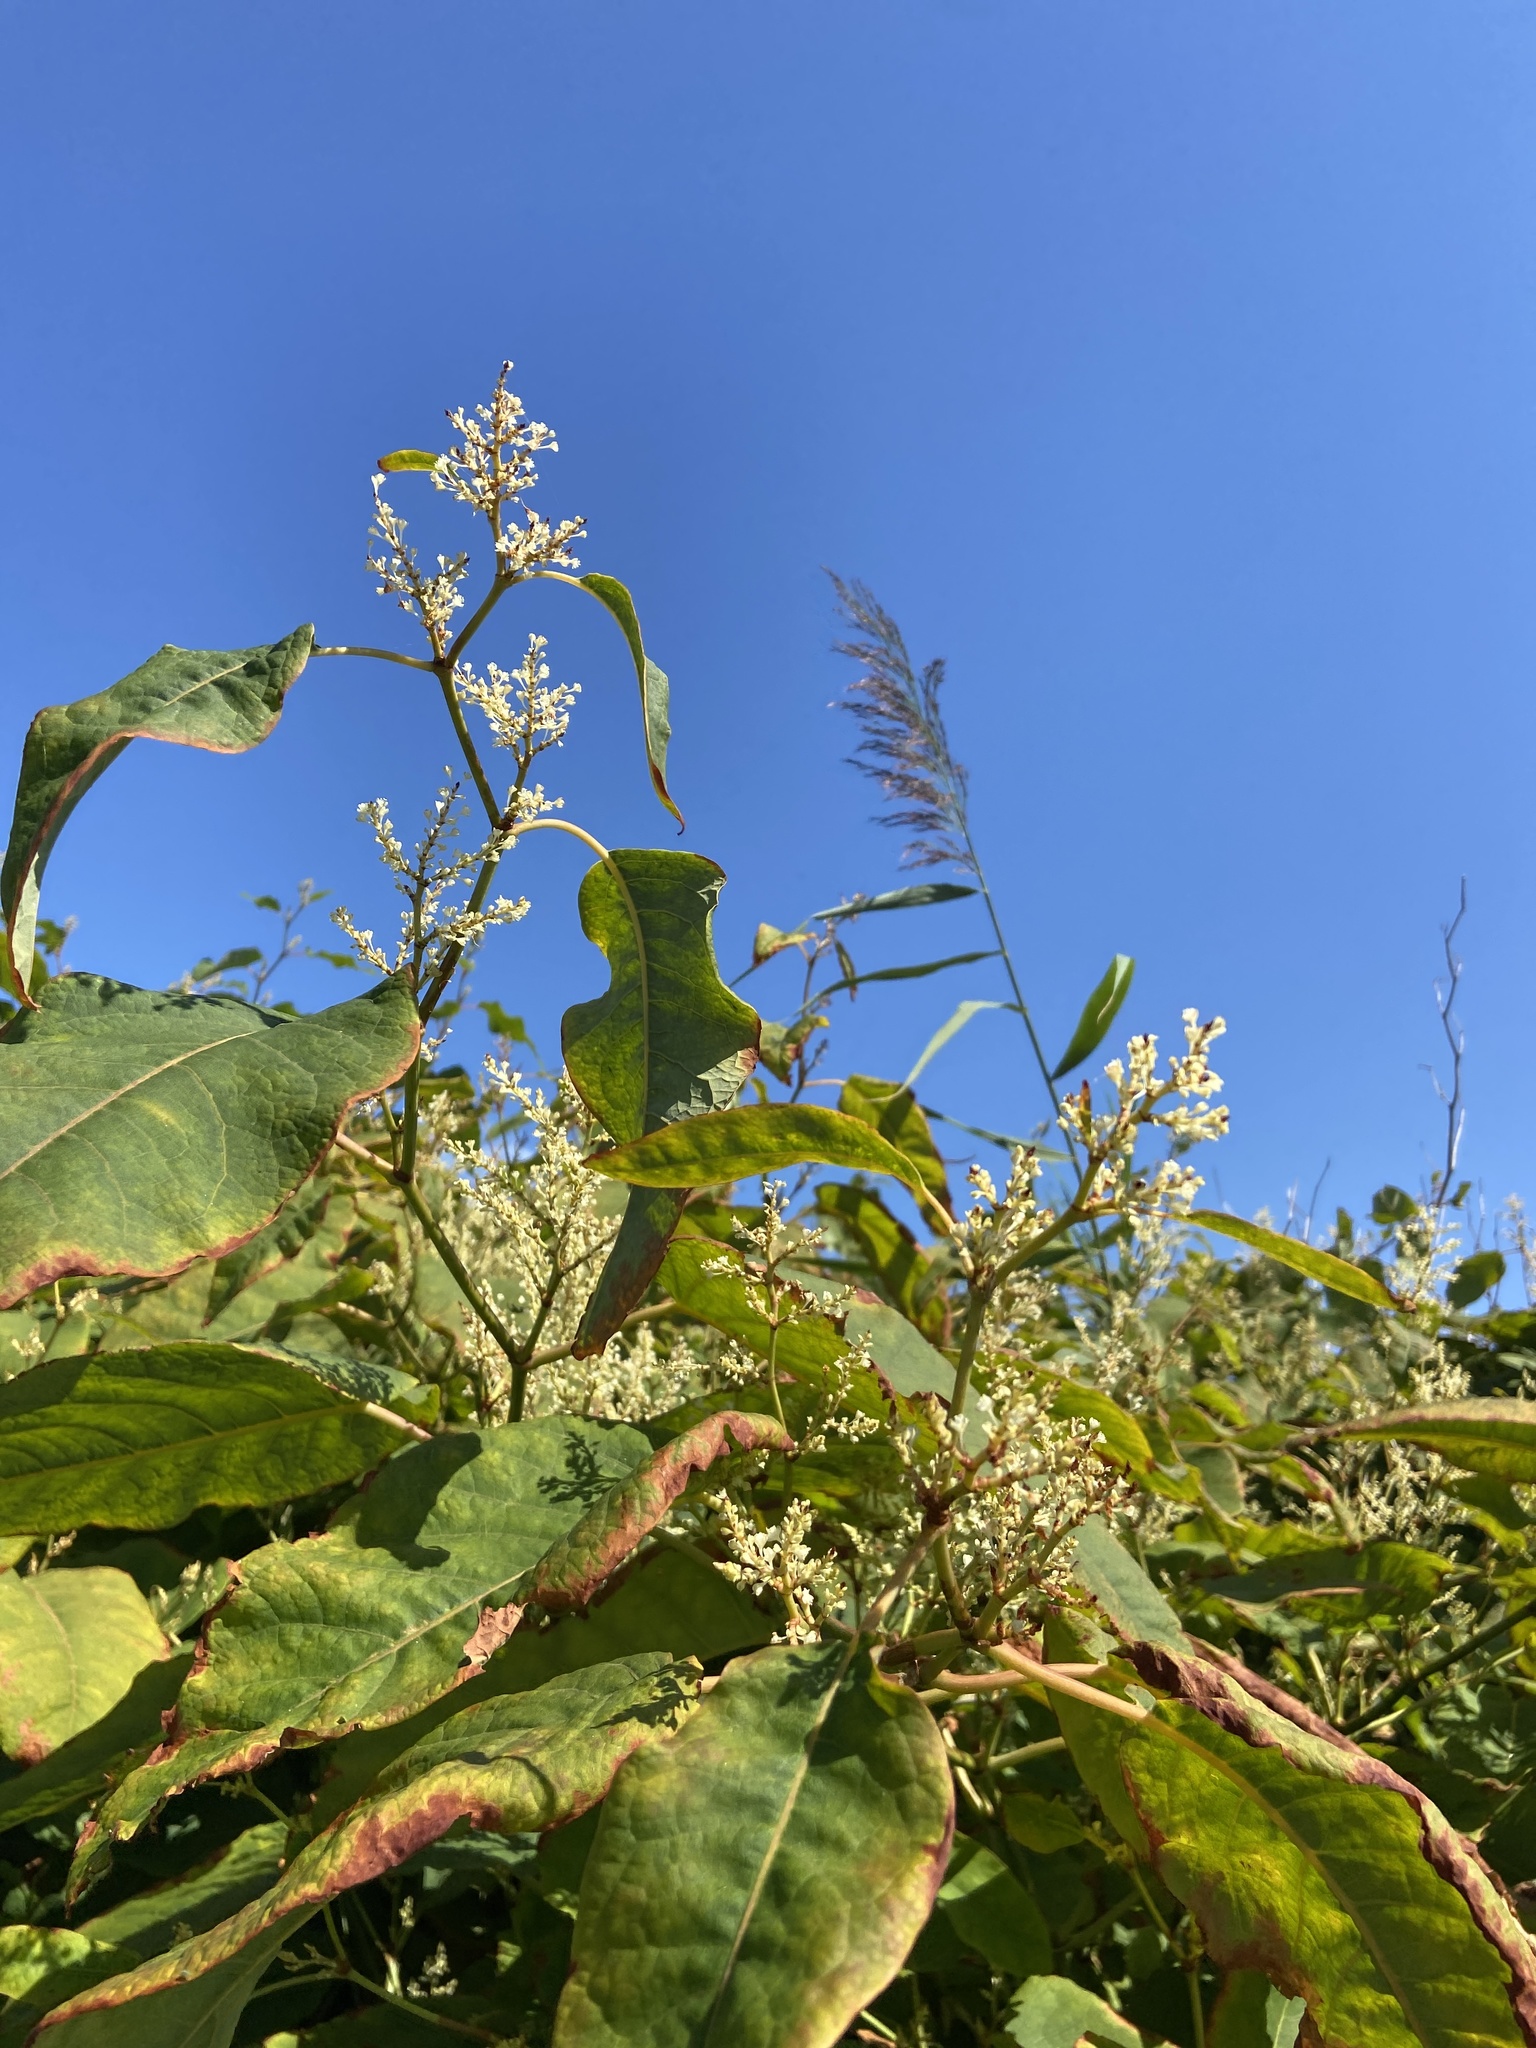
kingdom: Plantae
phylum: Tracheophyta
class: Magnoliopsida
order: Caryophyllales
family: Polygonaceae
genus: Reynoutria
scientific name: Reynoutria bohemica
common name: Bohemian knotweed
